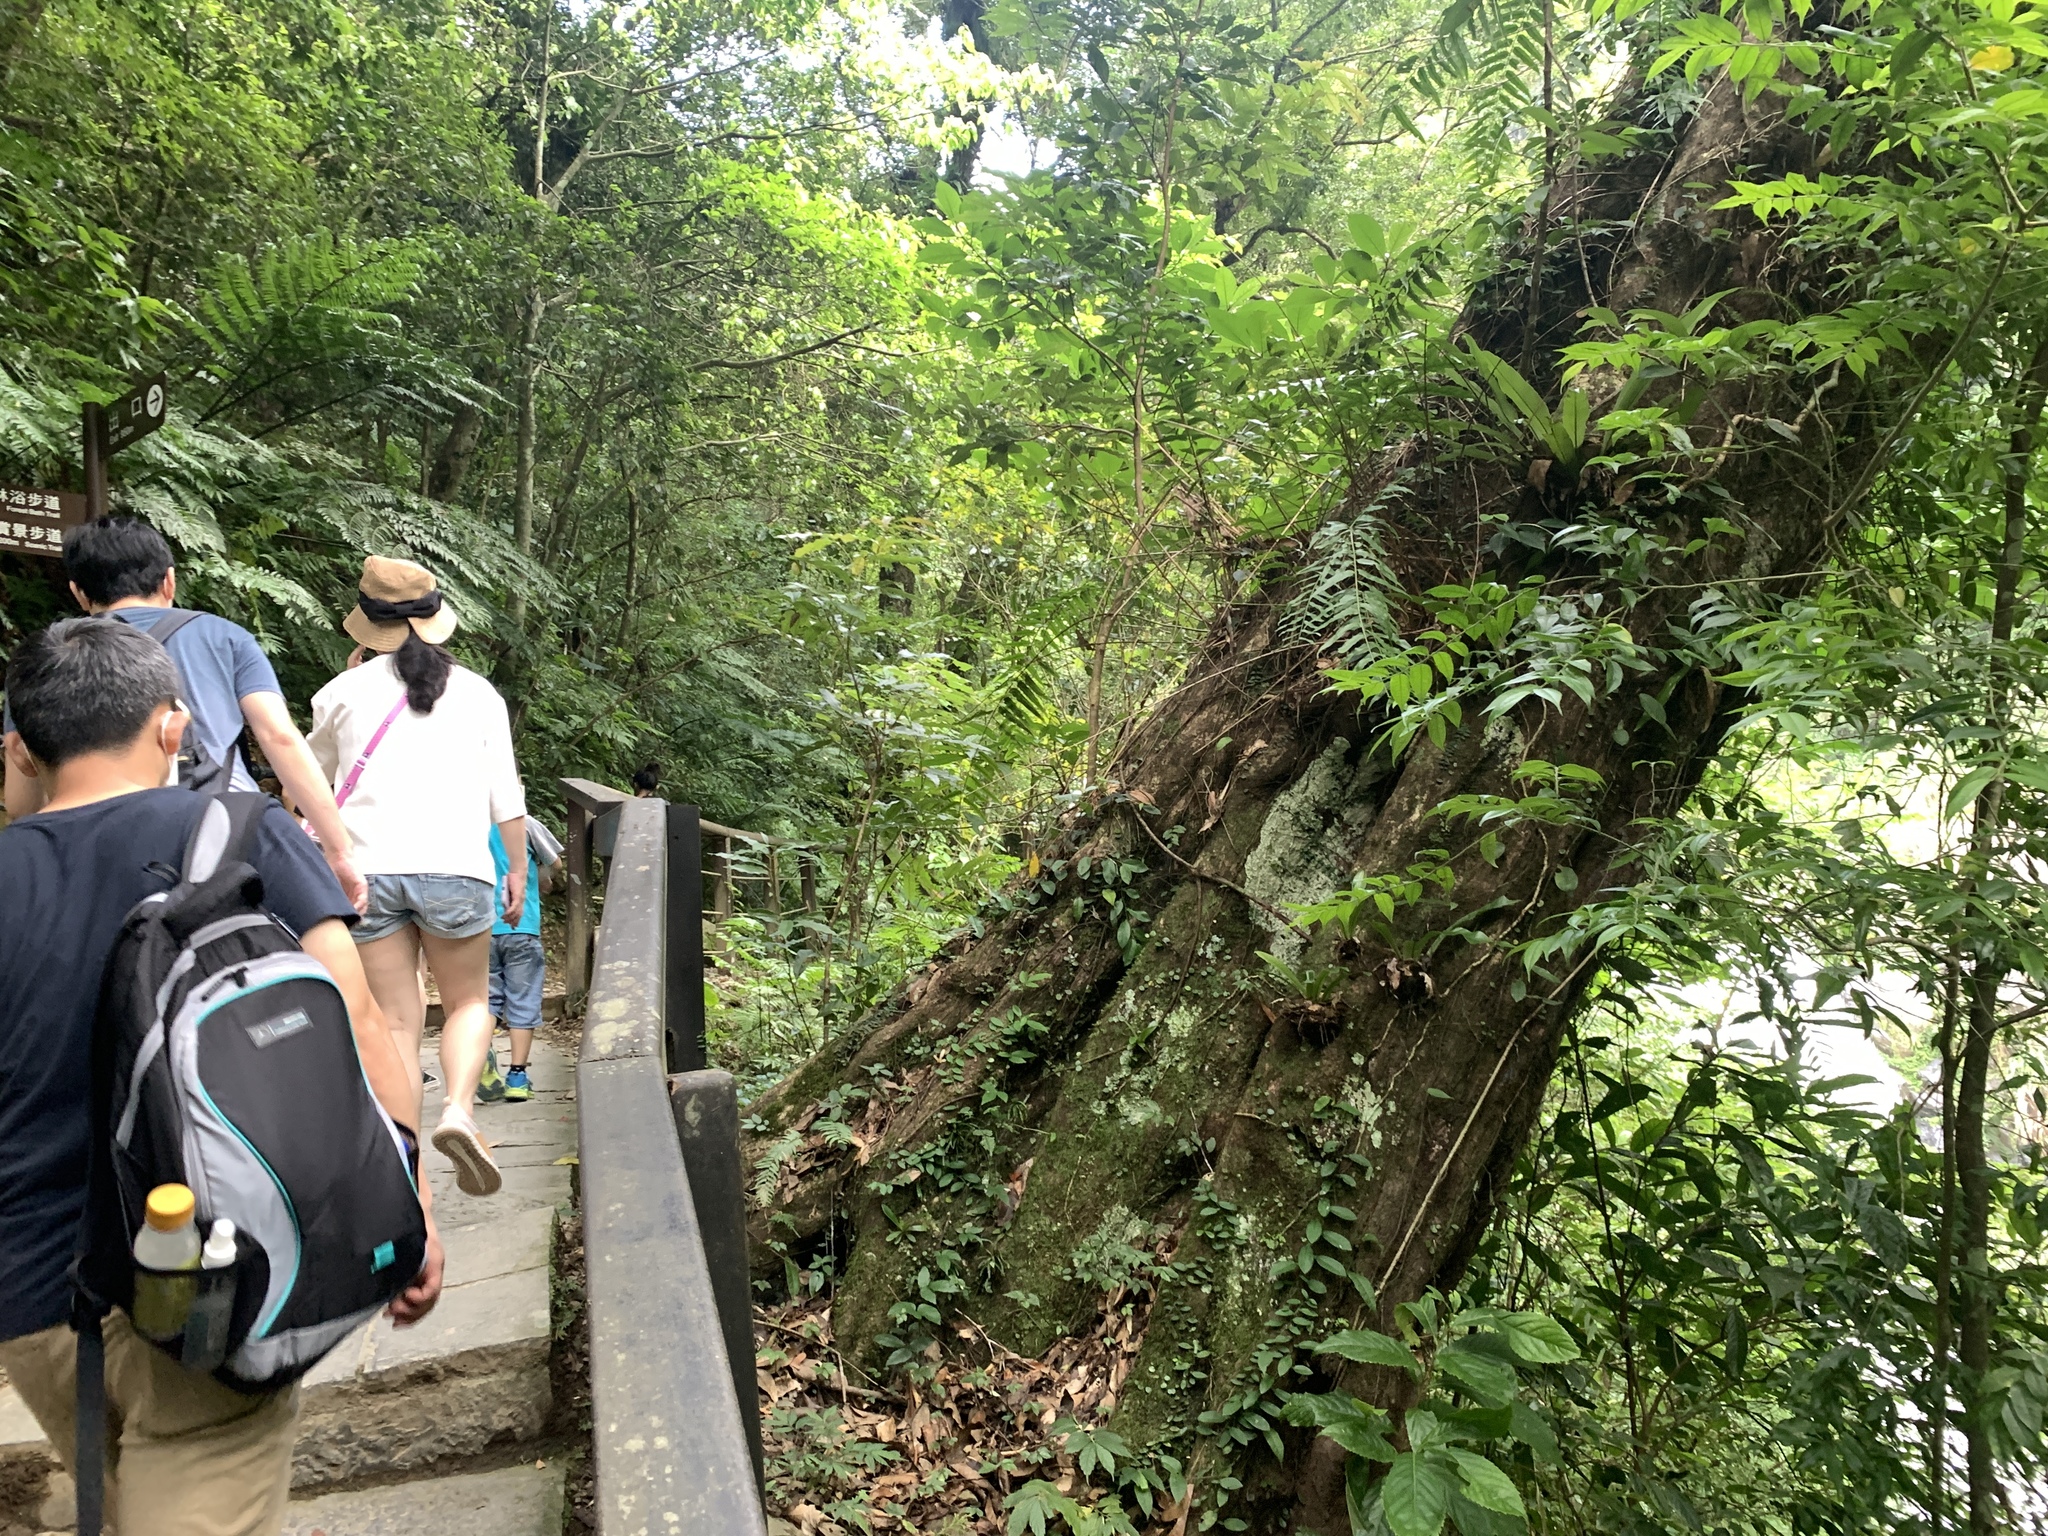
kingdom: Plantae
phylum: Tracheophyta
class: Magnoliopsida
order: Fagales
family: Juglandaceae
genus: Engelhardia
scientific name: Engelhardia roxburghiana
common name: Golden malay beam
